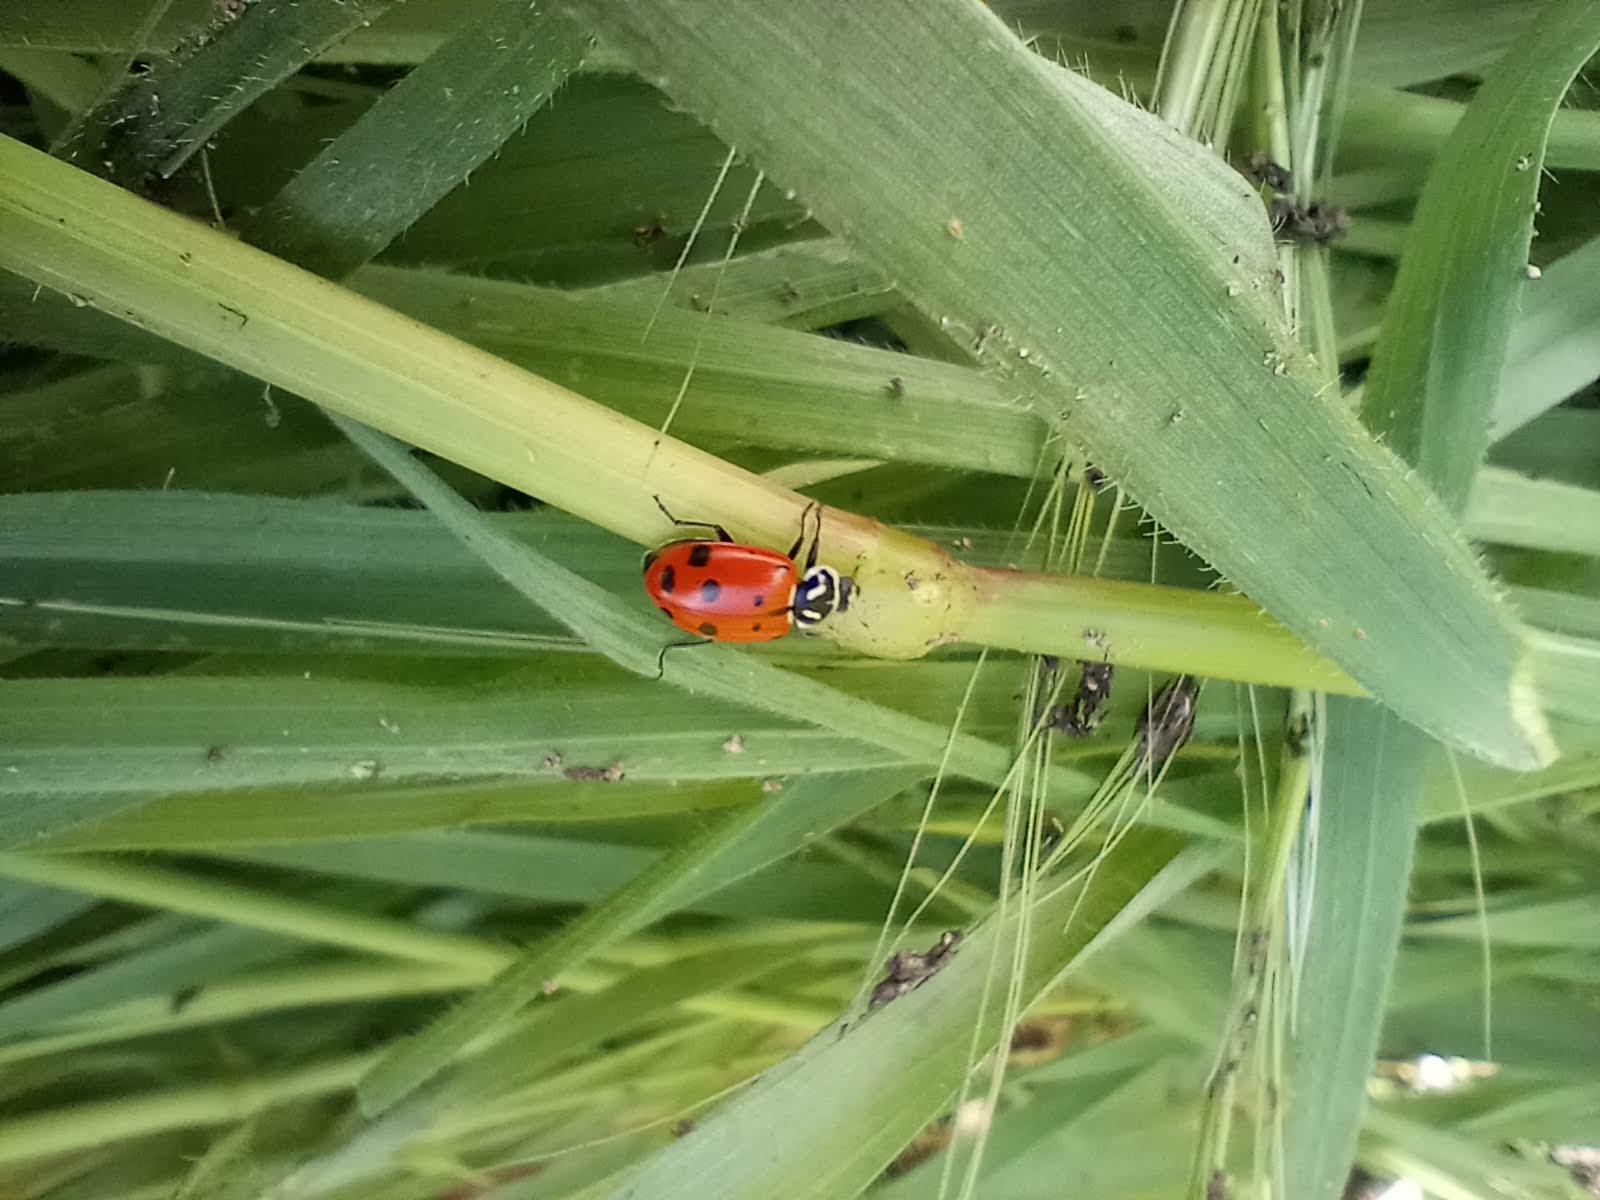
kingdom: Animalia
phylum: Arthropoda
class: Insecta
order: Coleoptera
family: Coccinellidae
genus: Hippodamia
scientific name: Hippodamia convergens
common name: Convergent lady beetle
